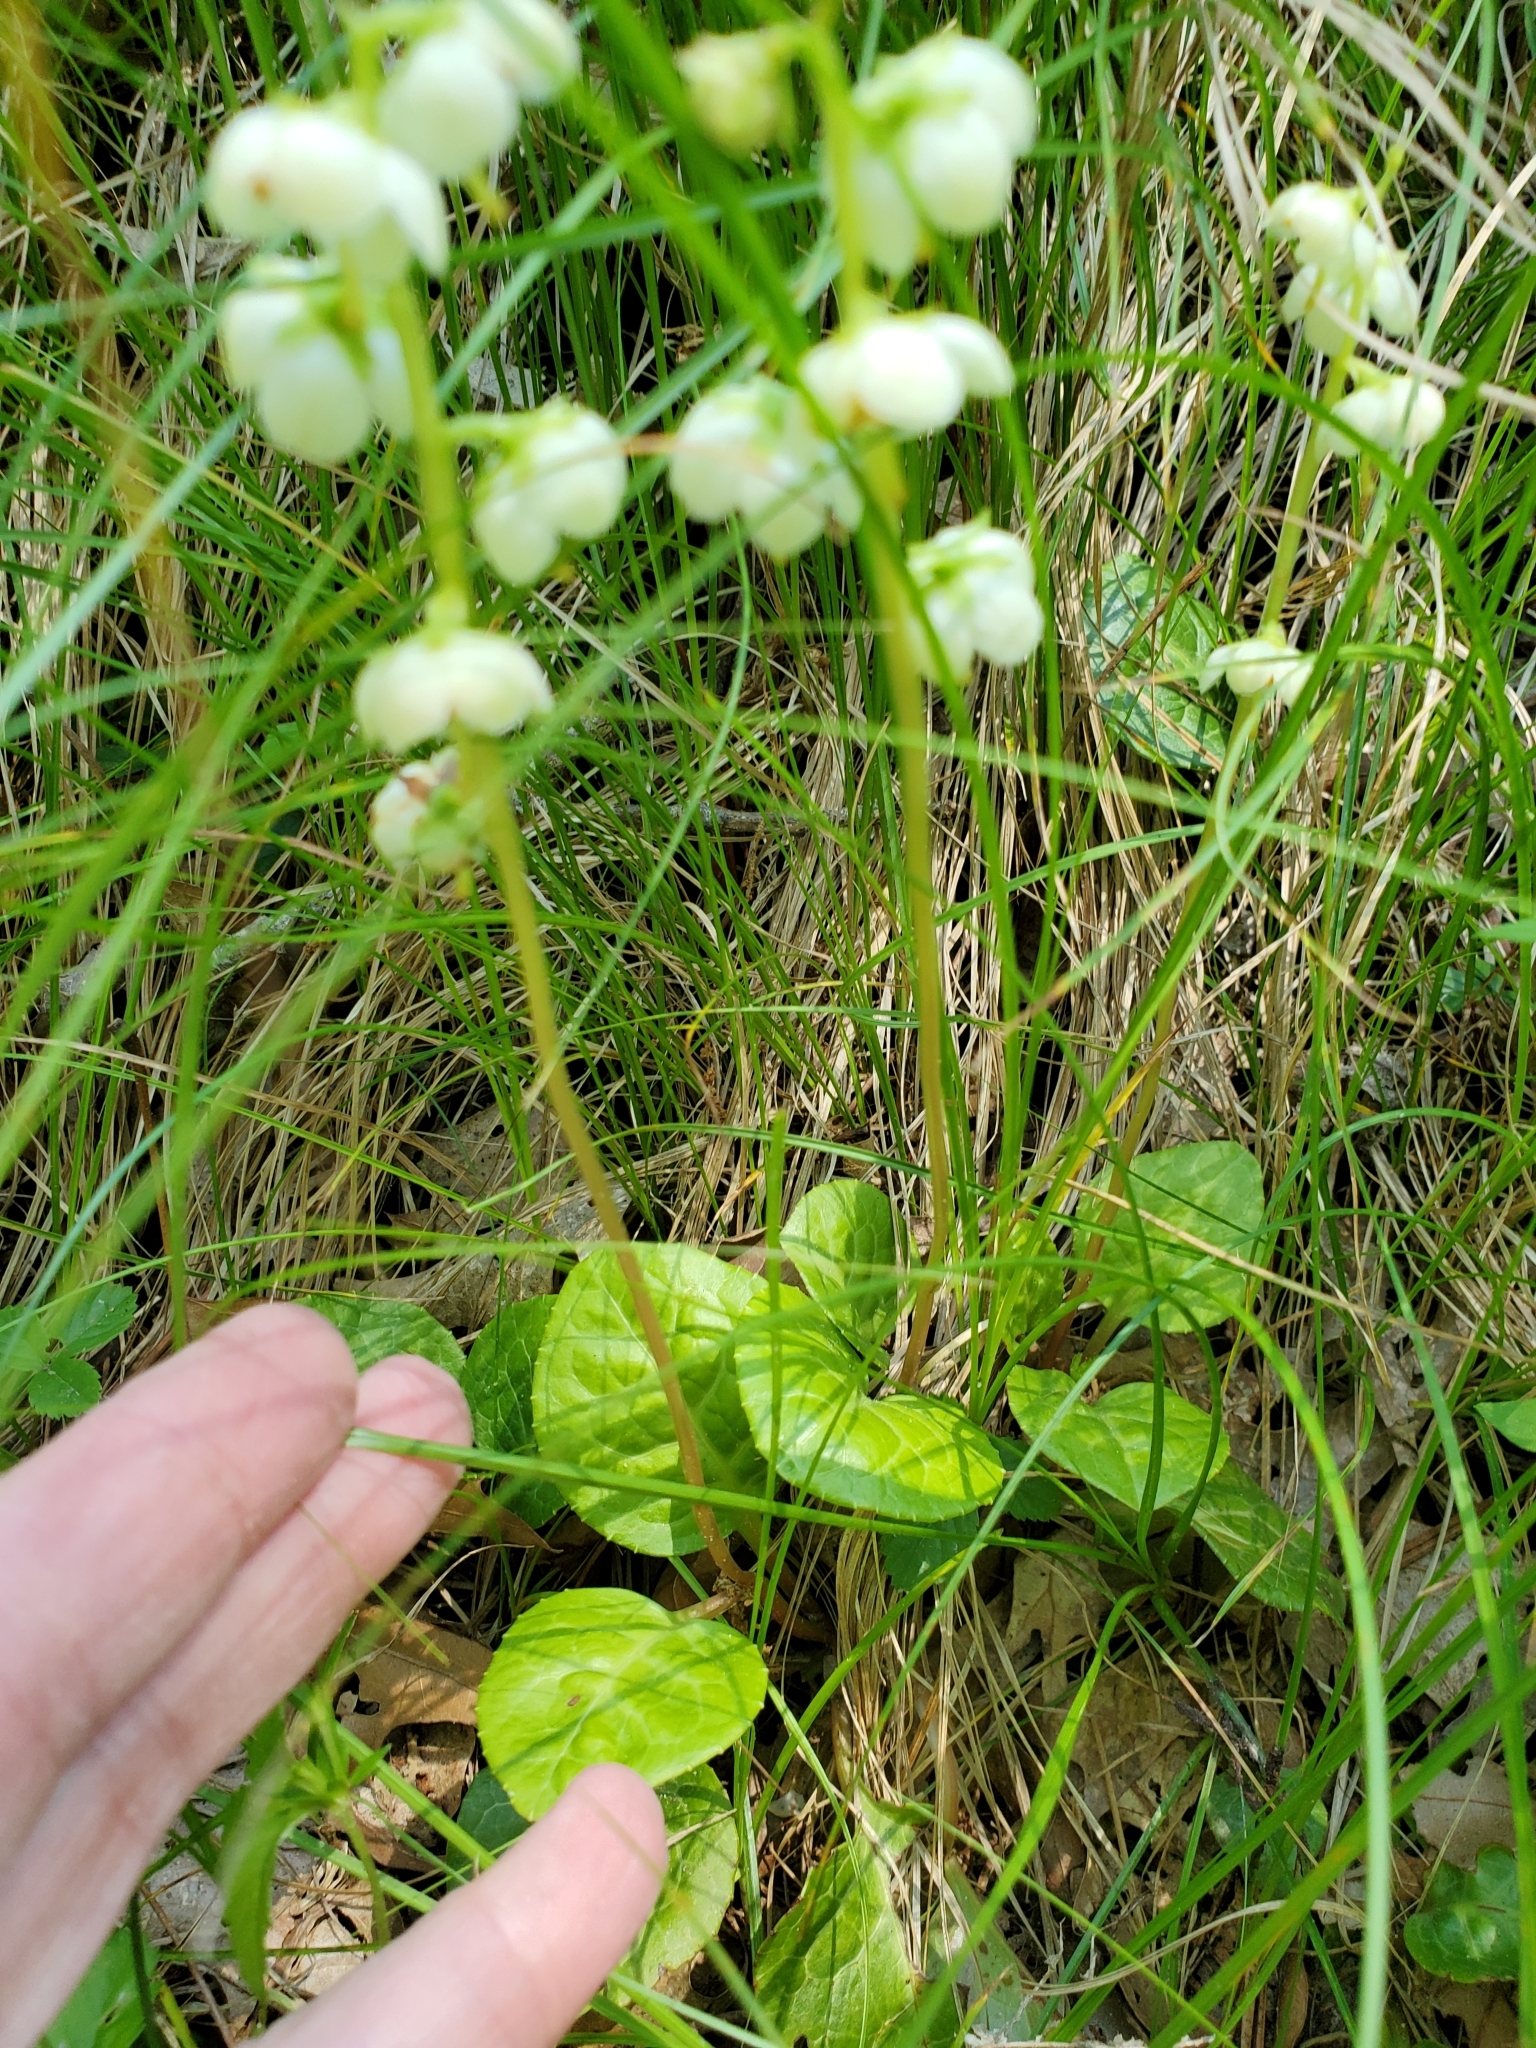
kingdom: Plantae
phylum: Tracheophyta
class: Magnoliopsida
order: Ericales
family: Ericaceae
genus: Pyrola
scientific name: Pyrola americana
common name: American wintergreen
